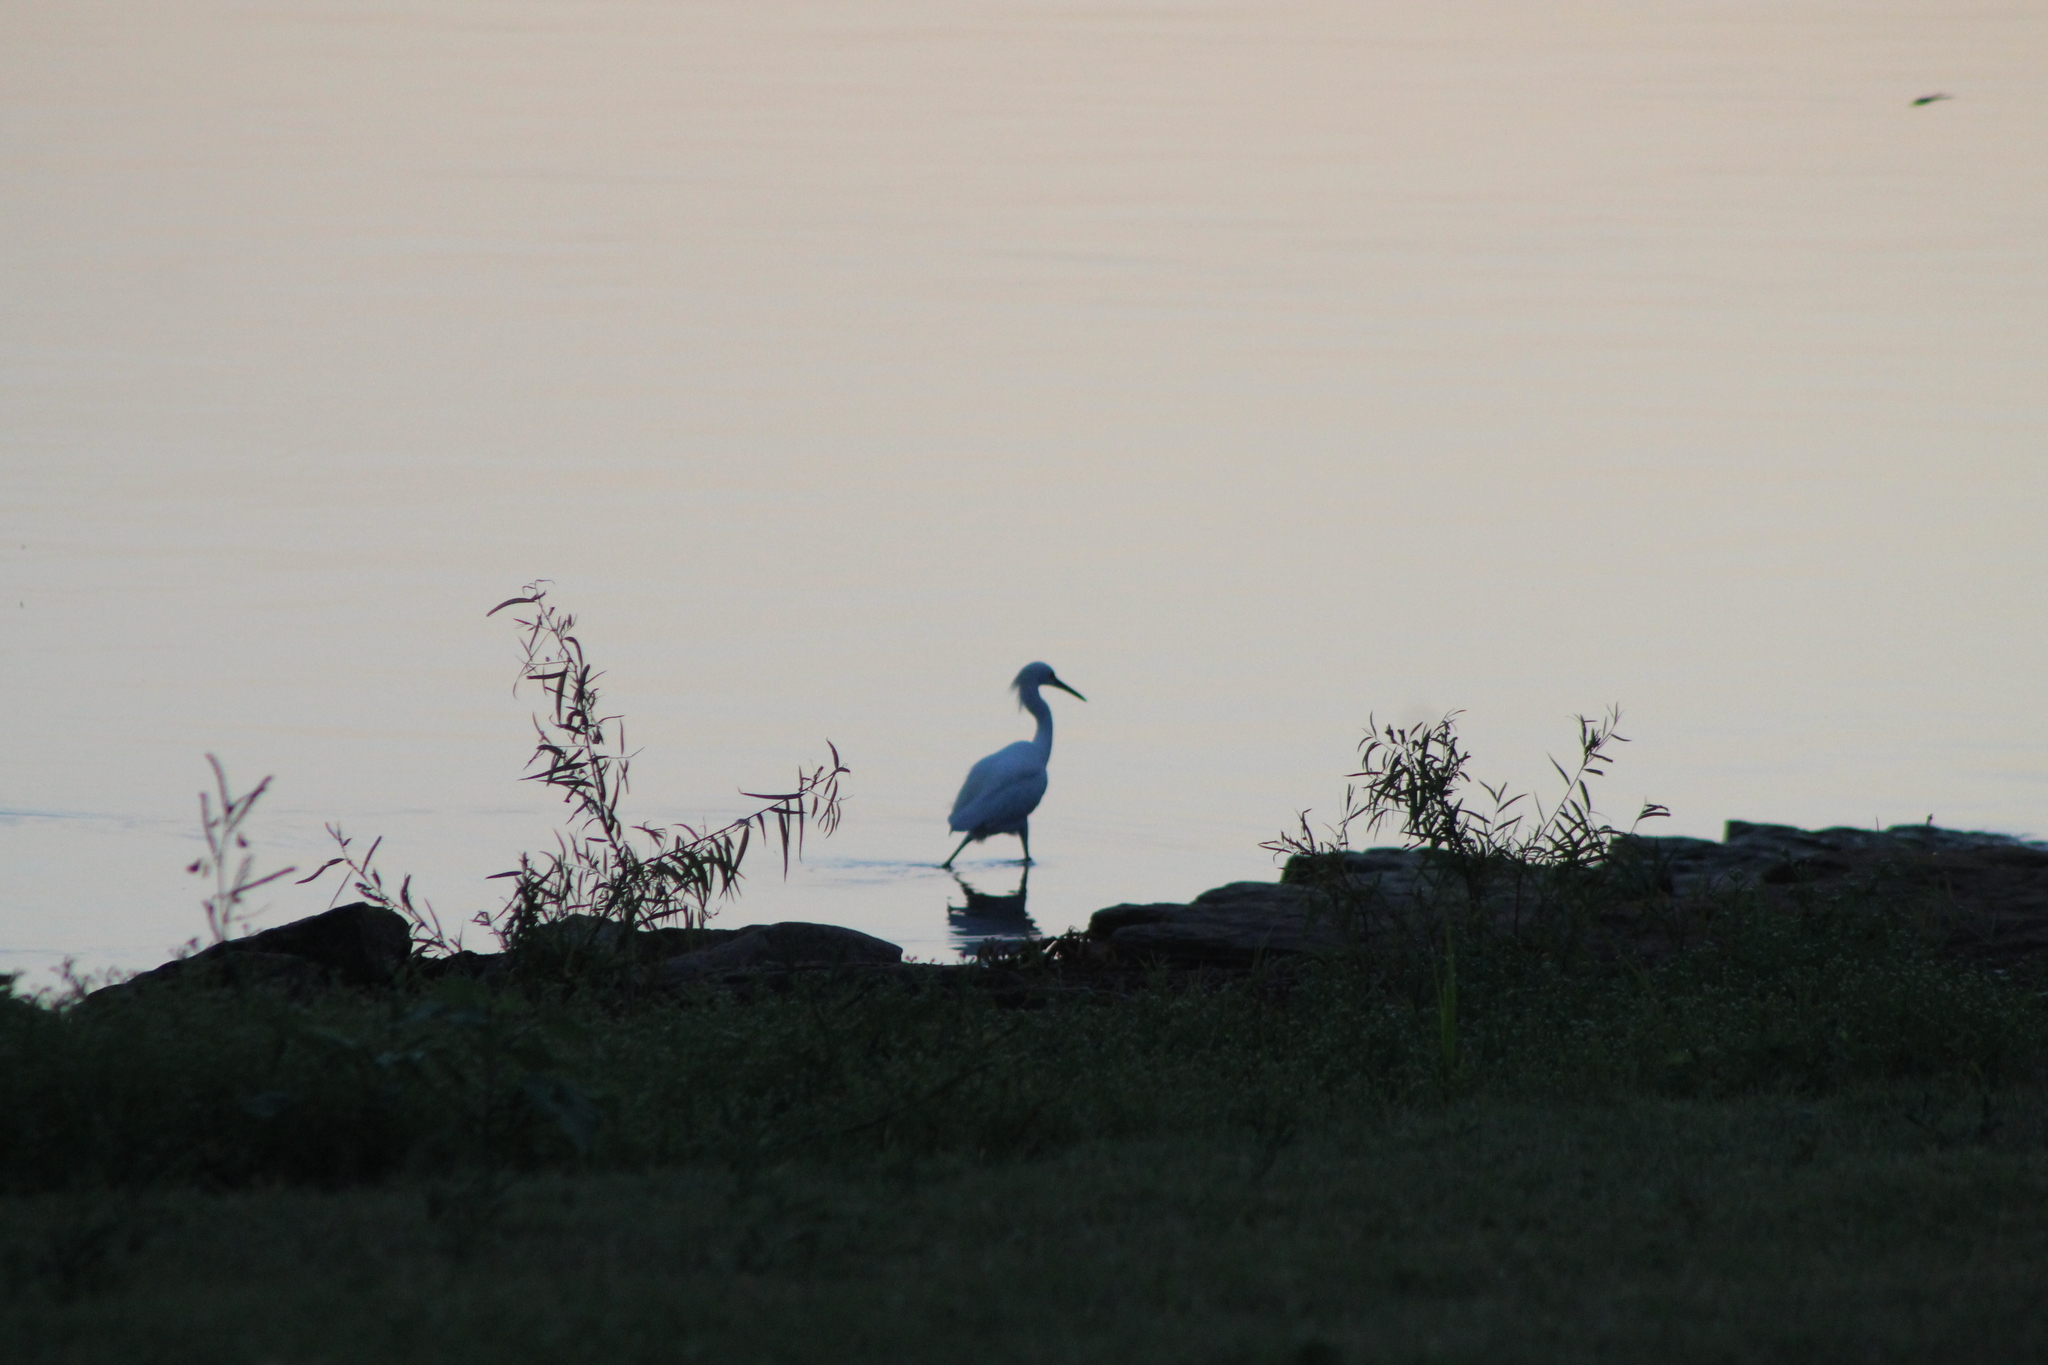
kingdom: Animalia
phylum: Chordata
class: Aves
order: Pelecaniformes
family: Ardeidae
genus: Egretta
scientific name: Egretta thula
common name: Snowy egret
